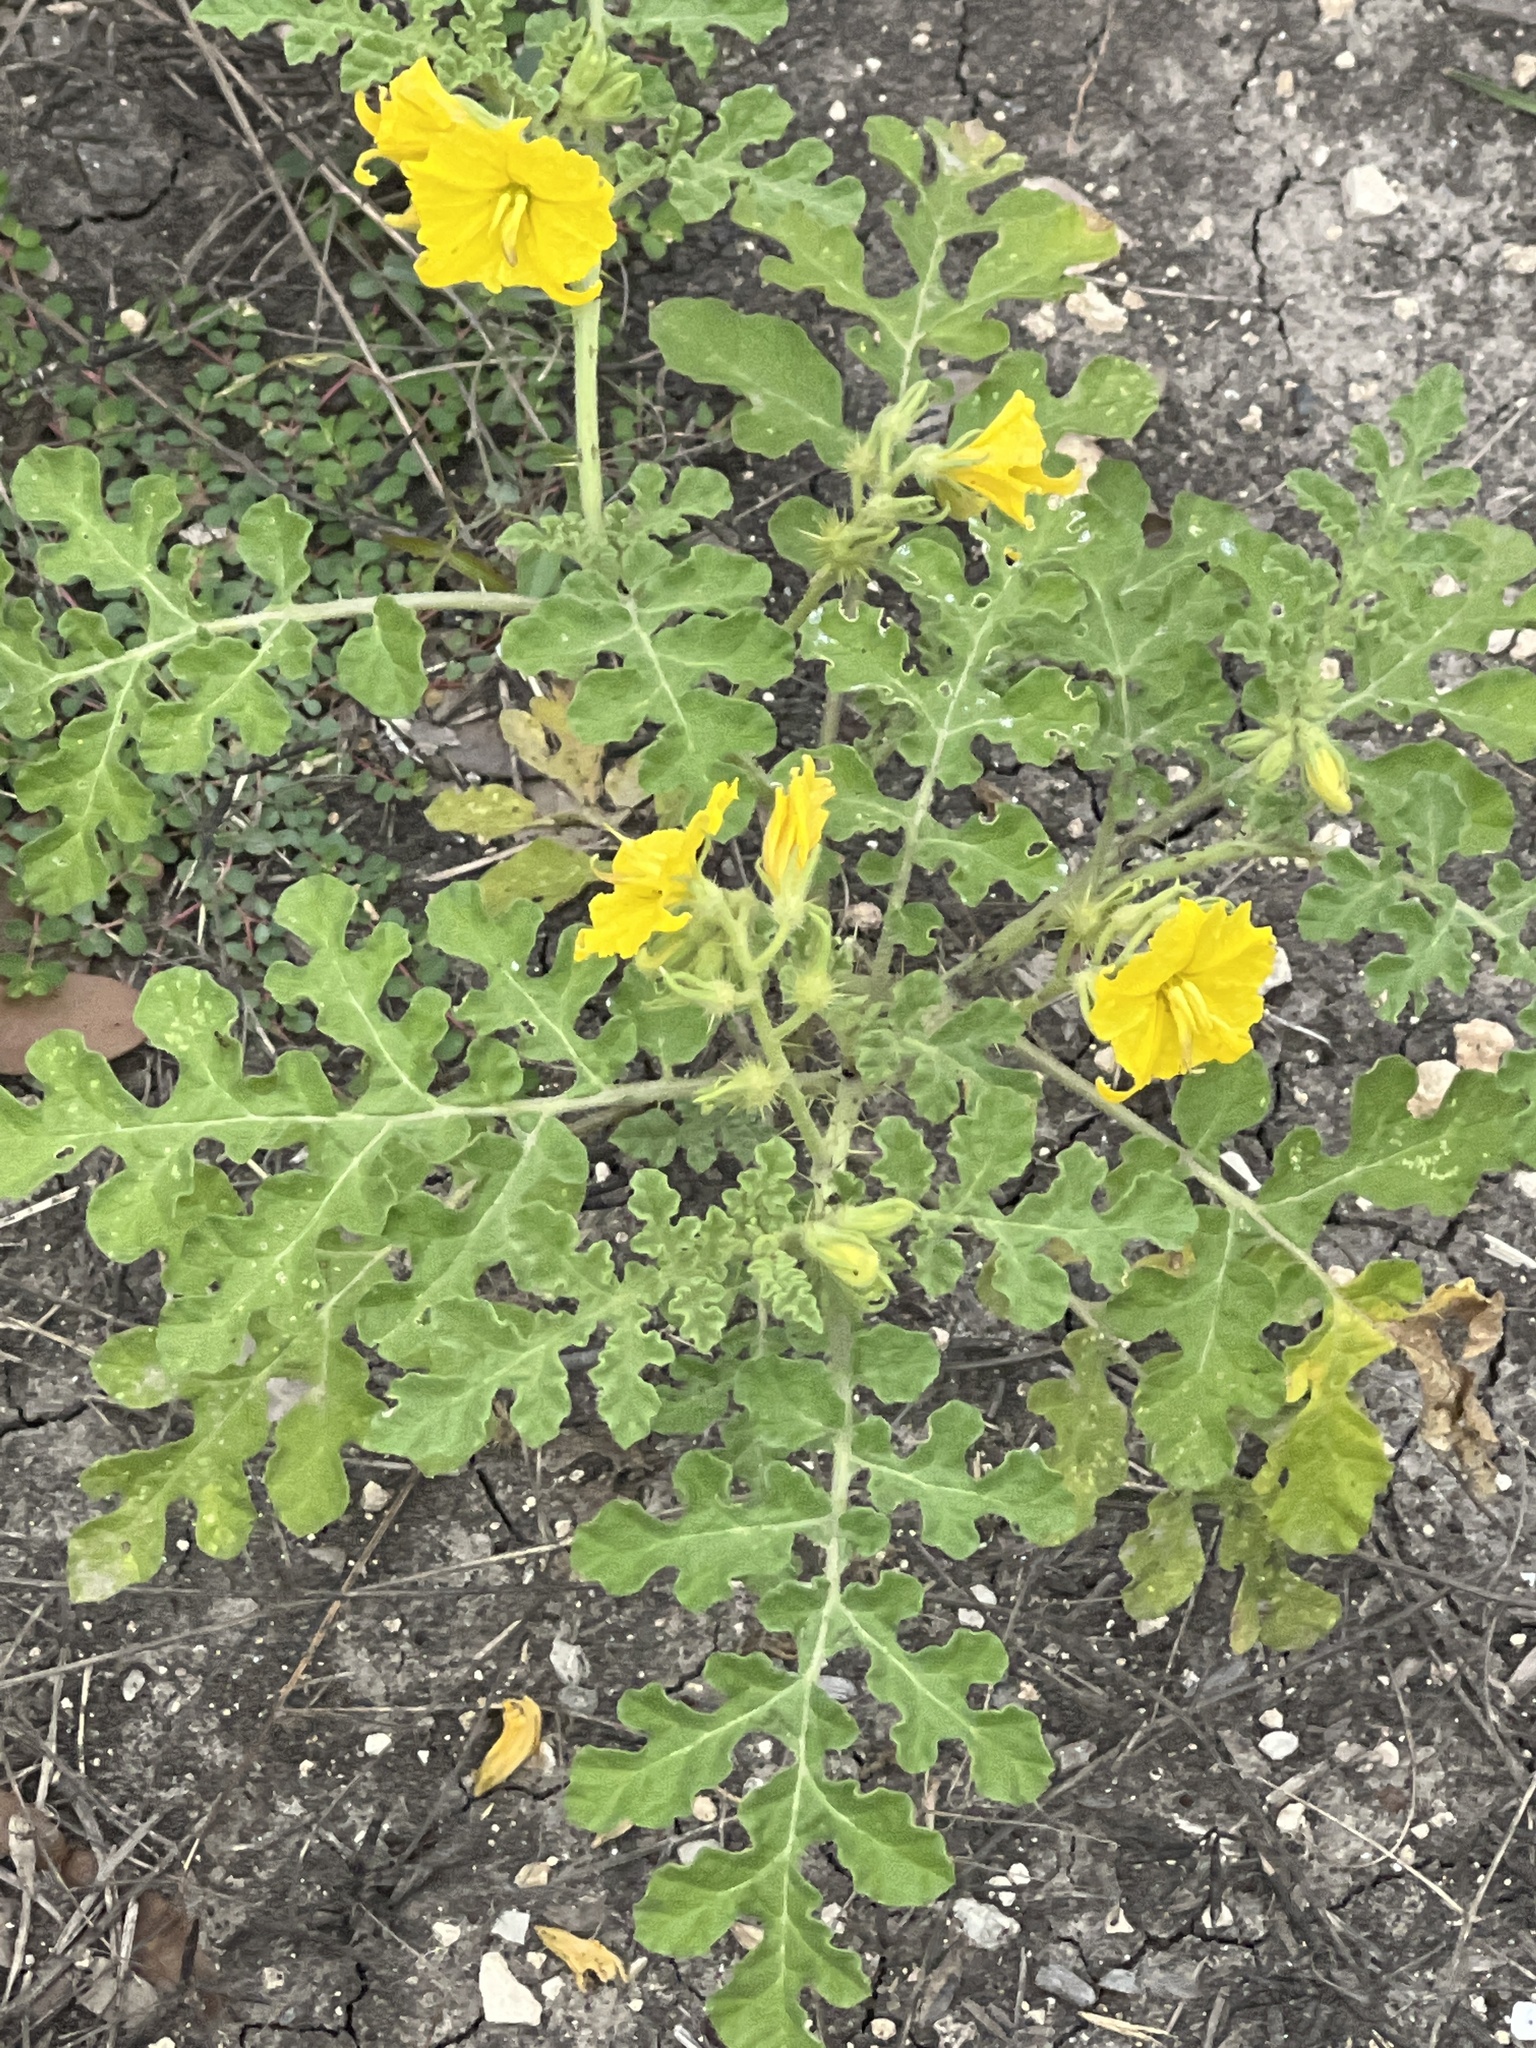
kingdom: Plantae
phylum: Tracheophyta
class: Magnoliopsida
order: Solanales
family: Solanaceae
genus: Solanum
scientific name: Solanum angustifolium
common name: Buffalobur nightshade
